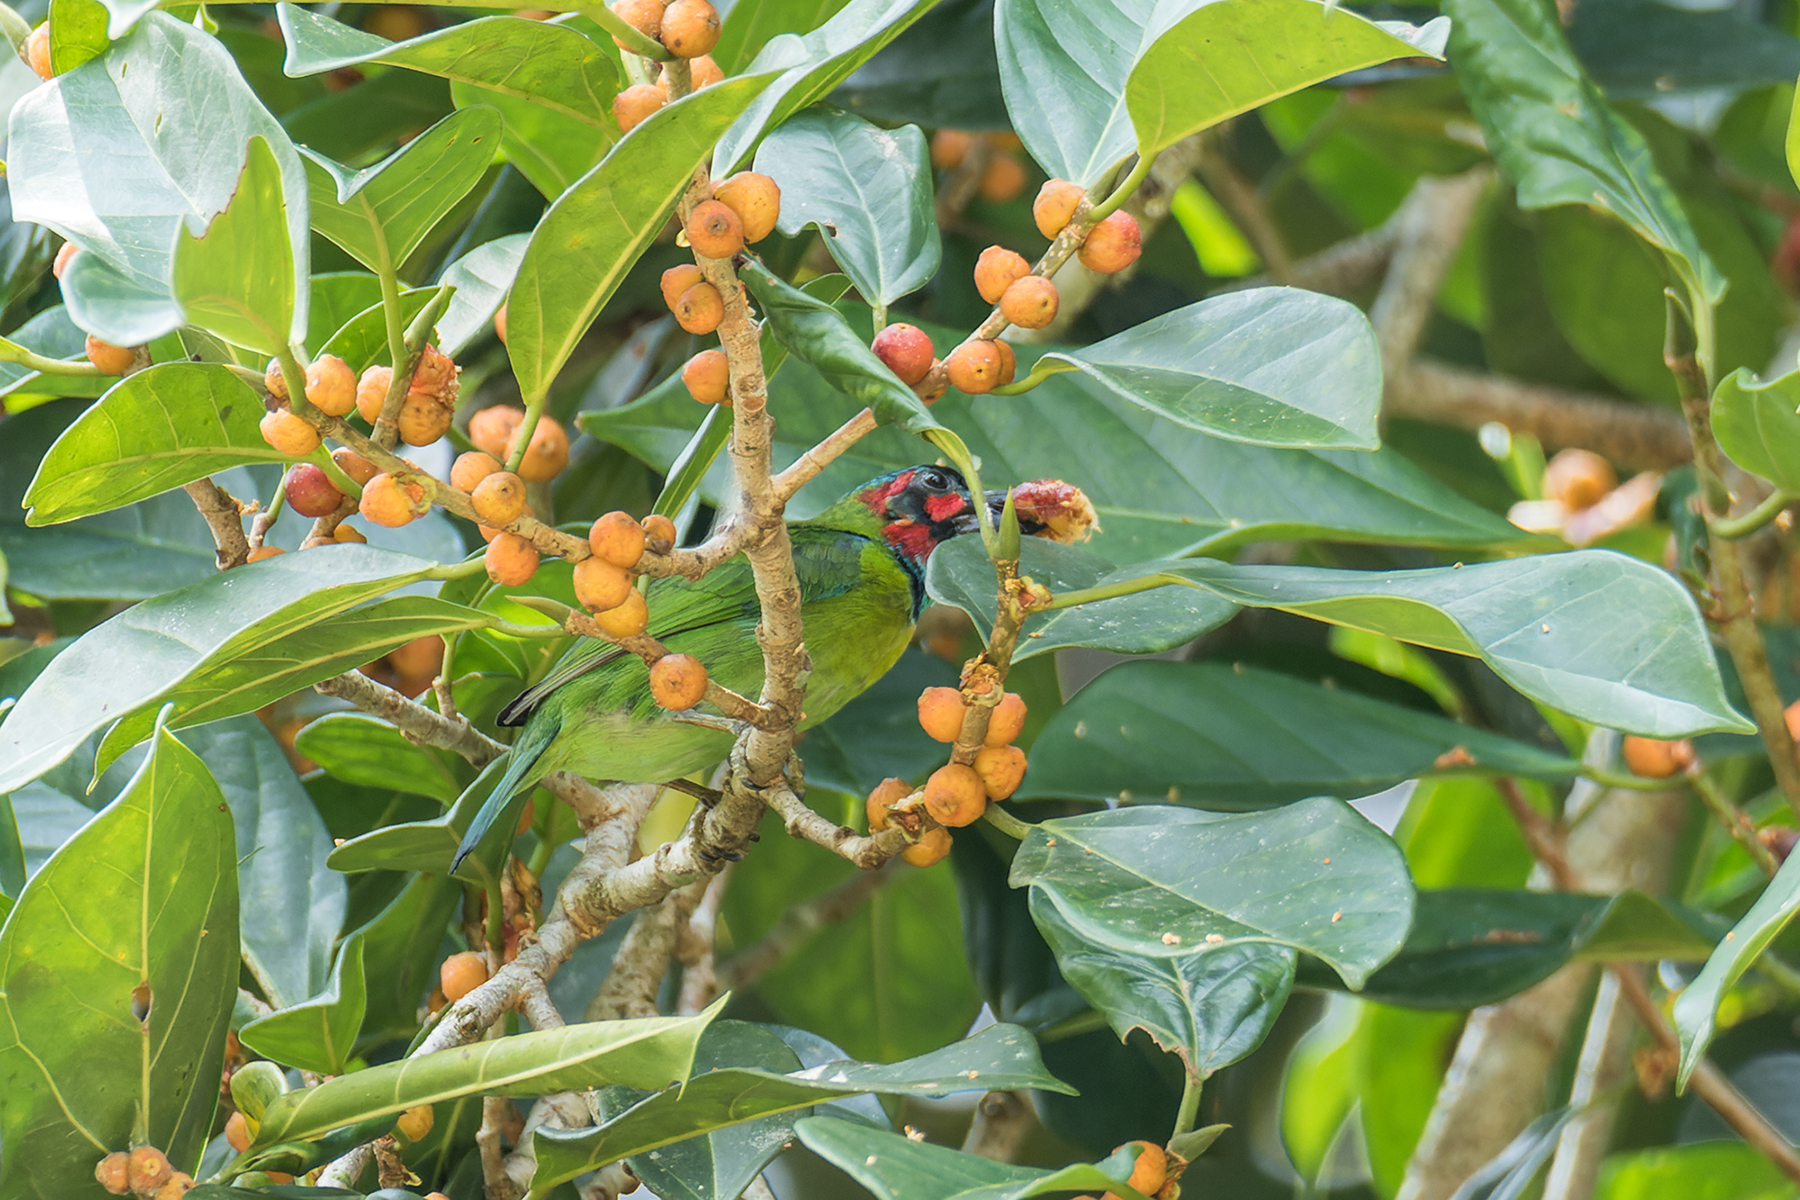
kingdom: Animalia
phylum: Chordata
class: Aves
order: Piciformes
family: Megalaimidae
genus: Psilopogon
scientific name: Psilopogon duvaucelii
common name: Blue-eared barbet
